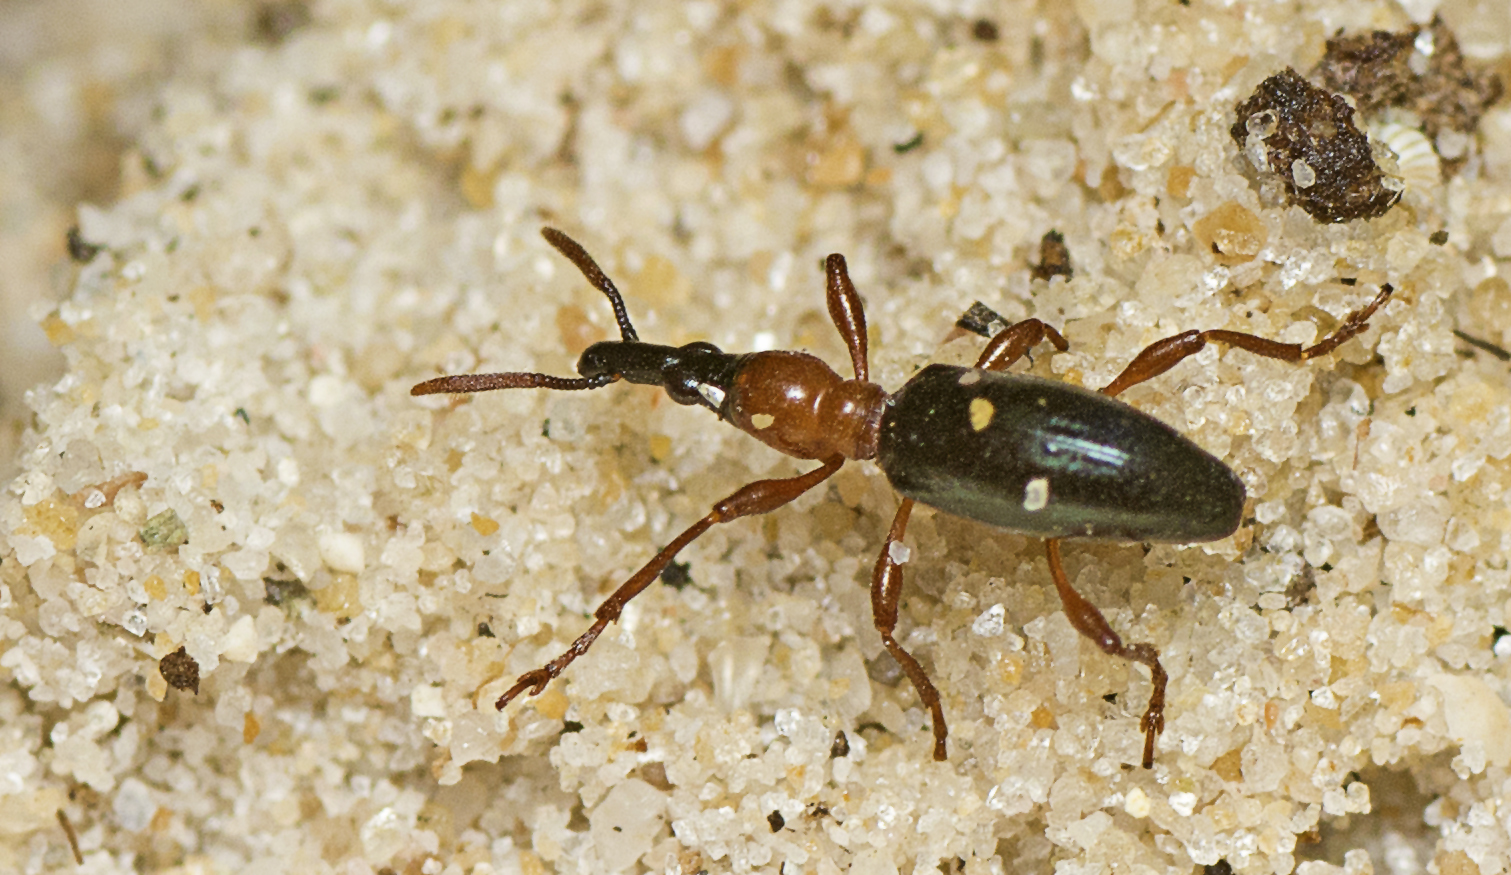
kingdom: Animalia
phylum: Arthropoda
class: Insecta
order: Coleoptera
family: Brentidae
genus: Cylas
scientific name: Cylas formicarius
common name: Sweetpotato weevil
